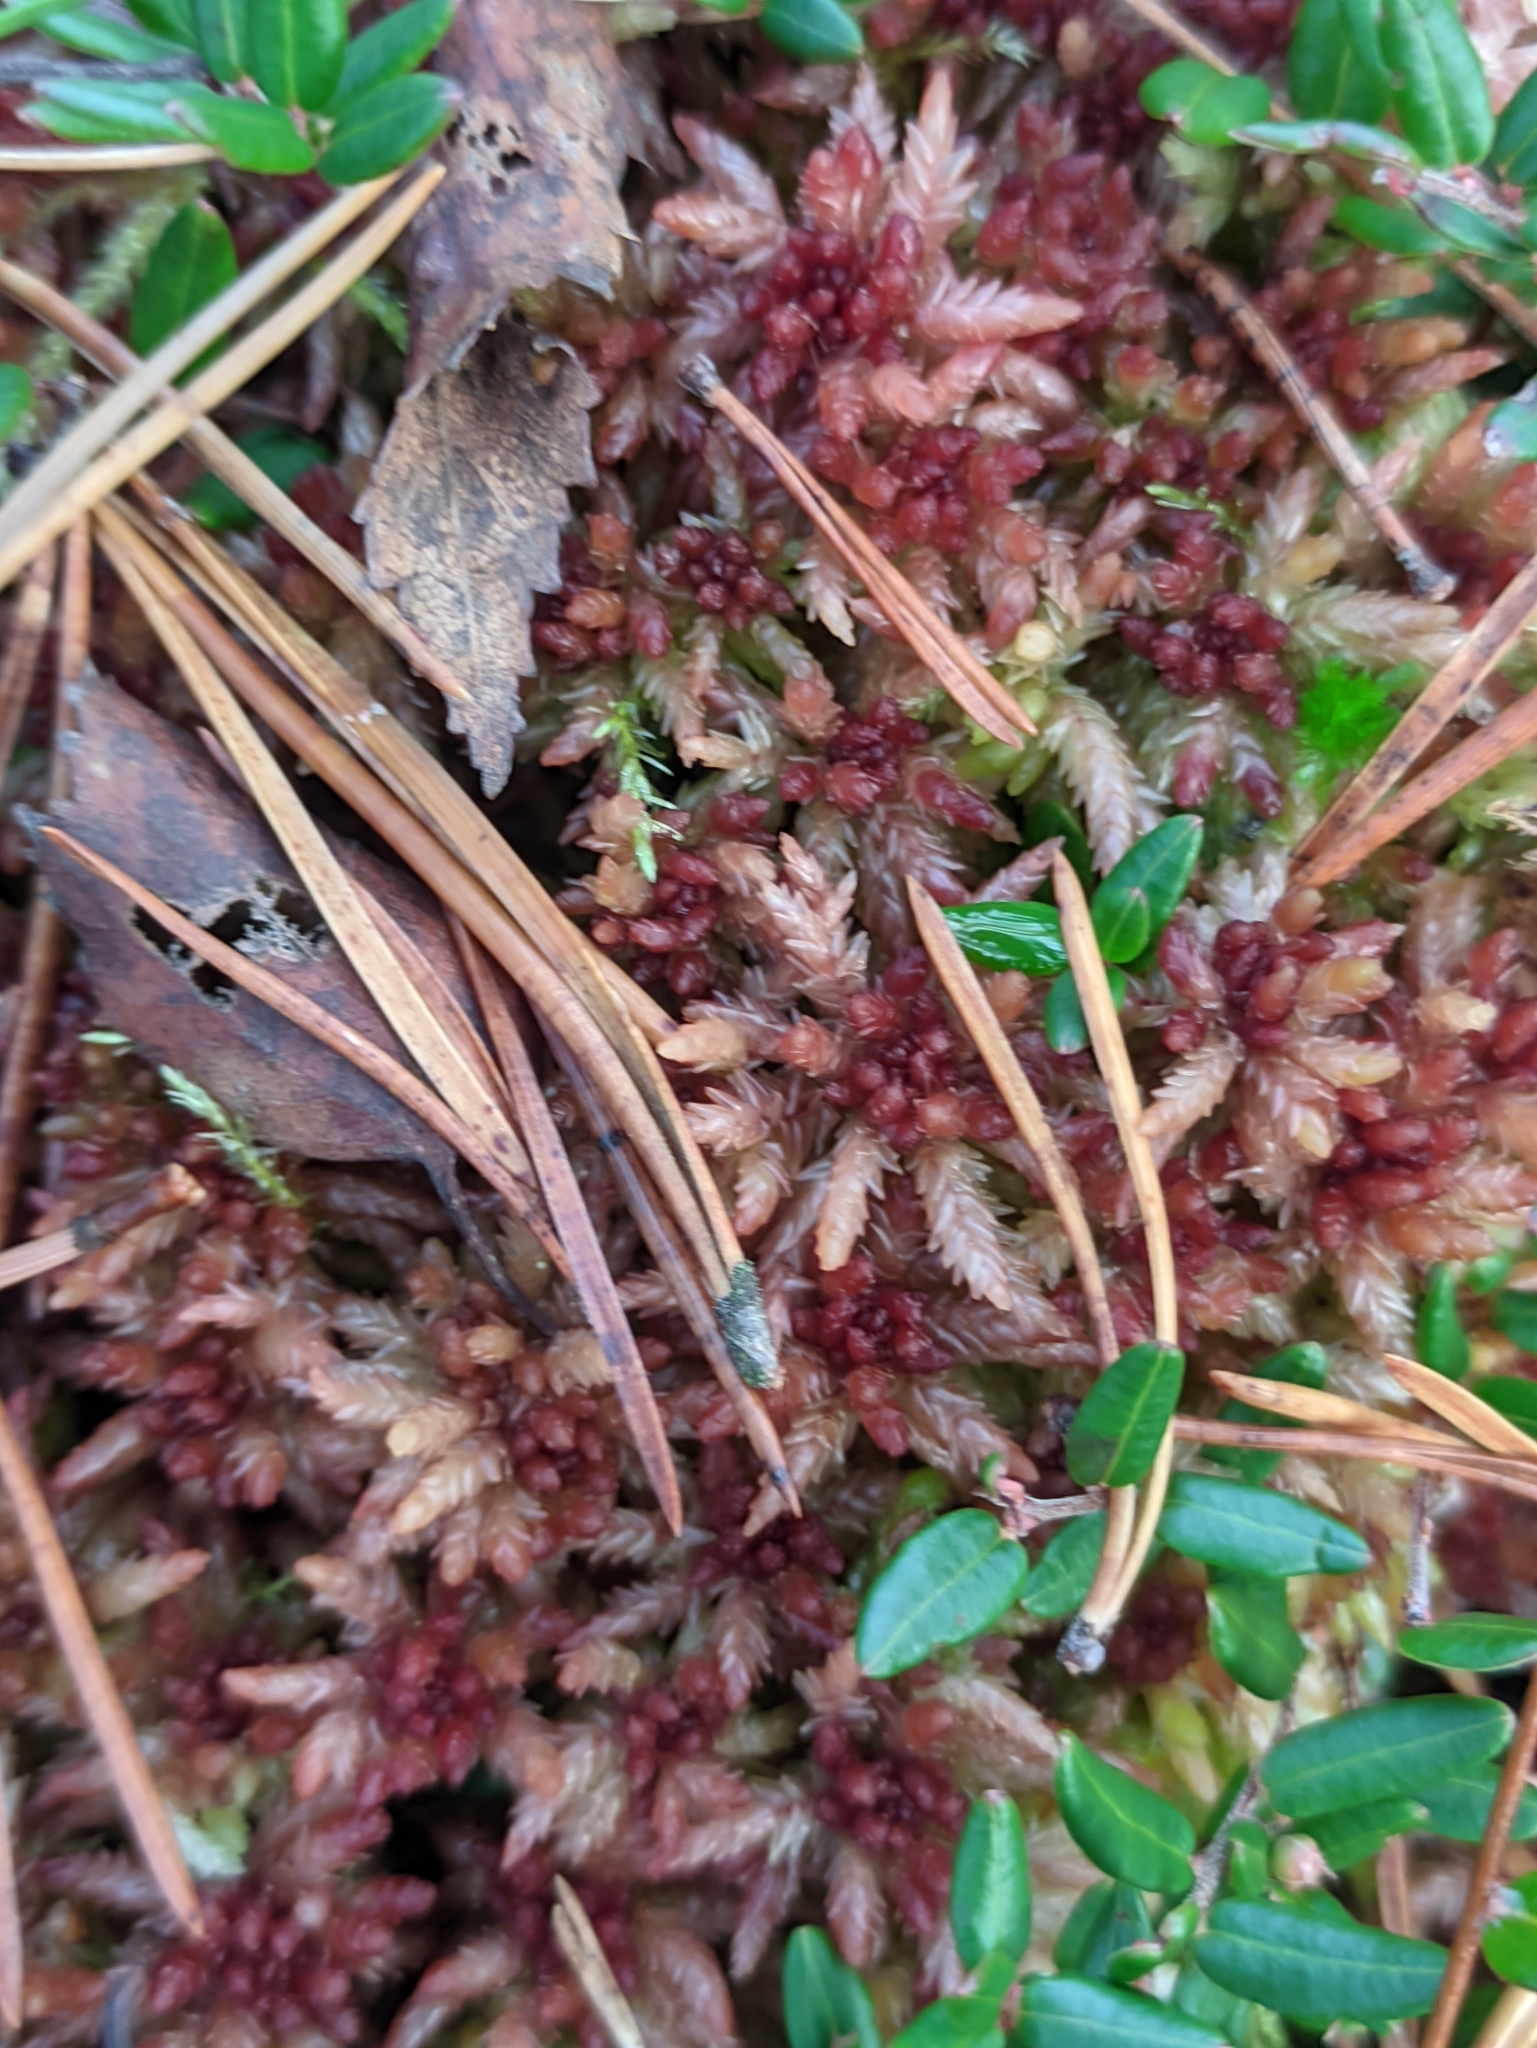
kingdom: Plantae
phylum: Bryophyta
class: Sphagnopsida
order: Sphagnales
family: Sphagnaceae
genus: Sphagnum
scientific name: Sphagnum divinum
